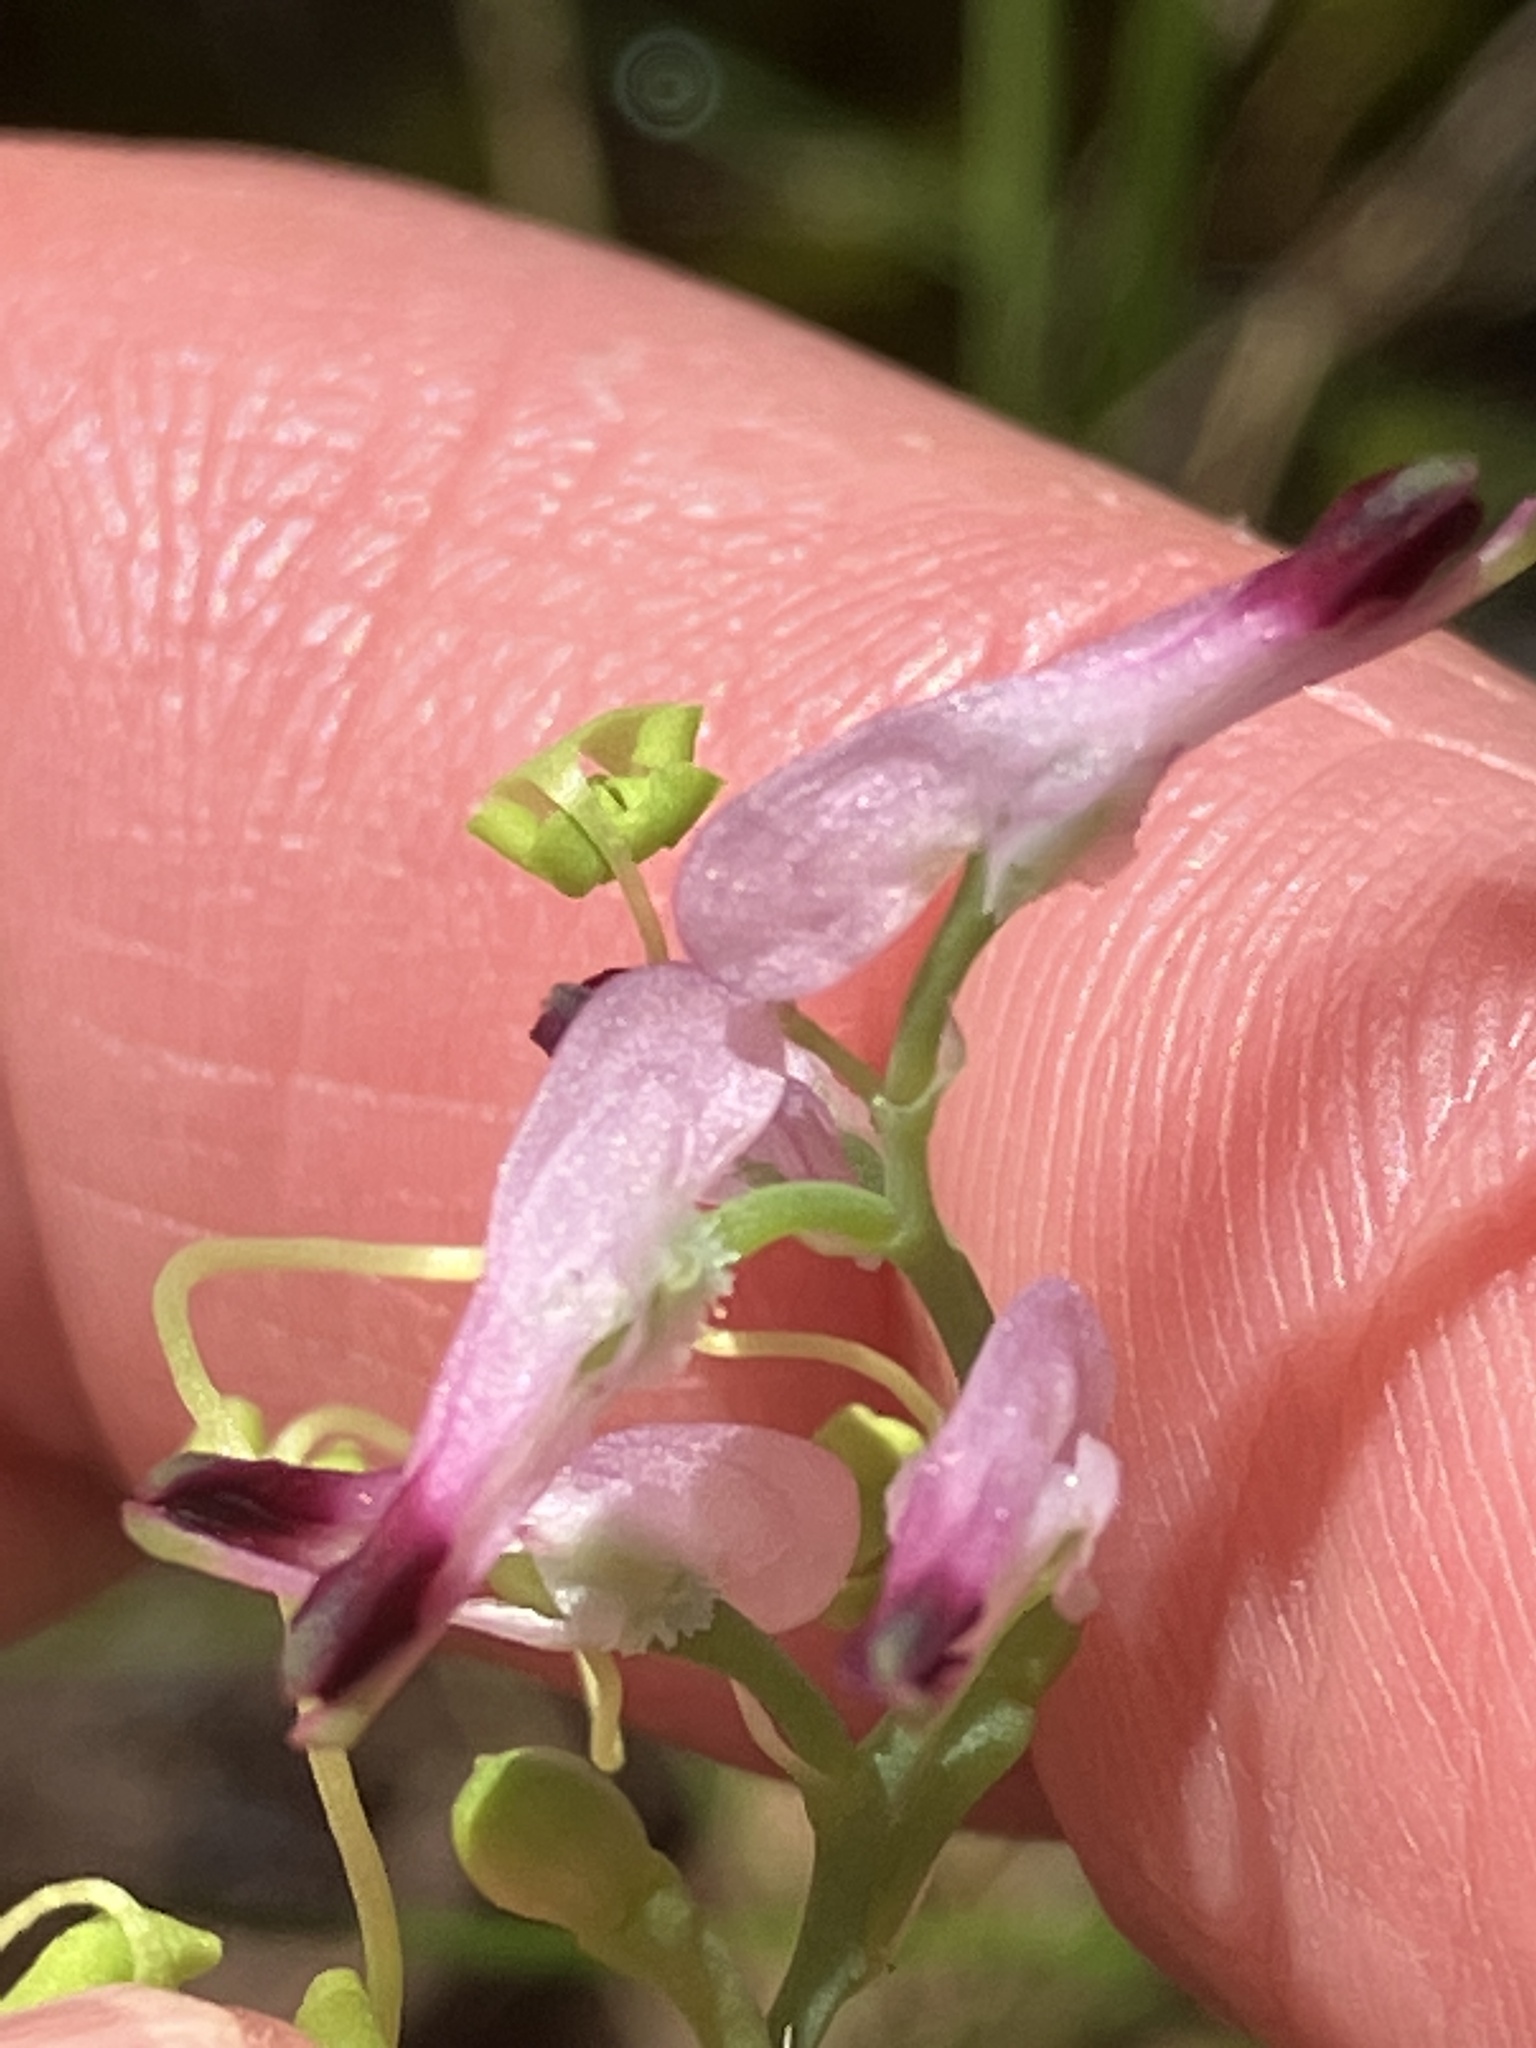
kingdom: Plantae
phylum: Tracheophyta
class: Magnoliopsida
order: Ranunculales
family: Papaveraceae
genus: Fumaria
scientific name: Fumaria muralis
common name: Common ramping-fumitory
